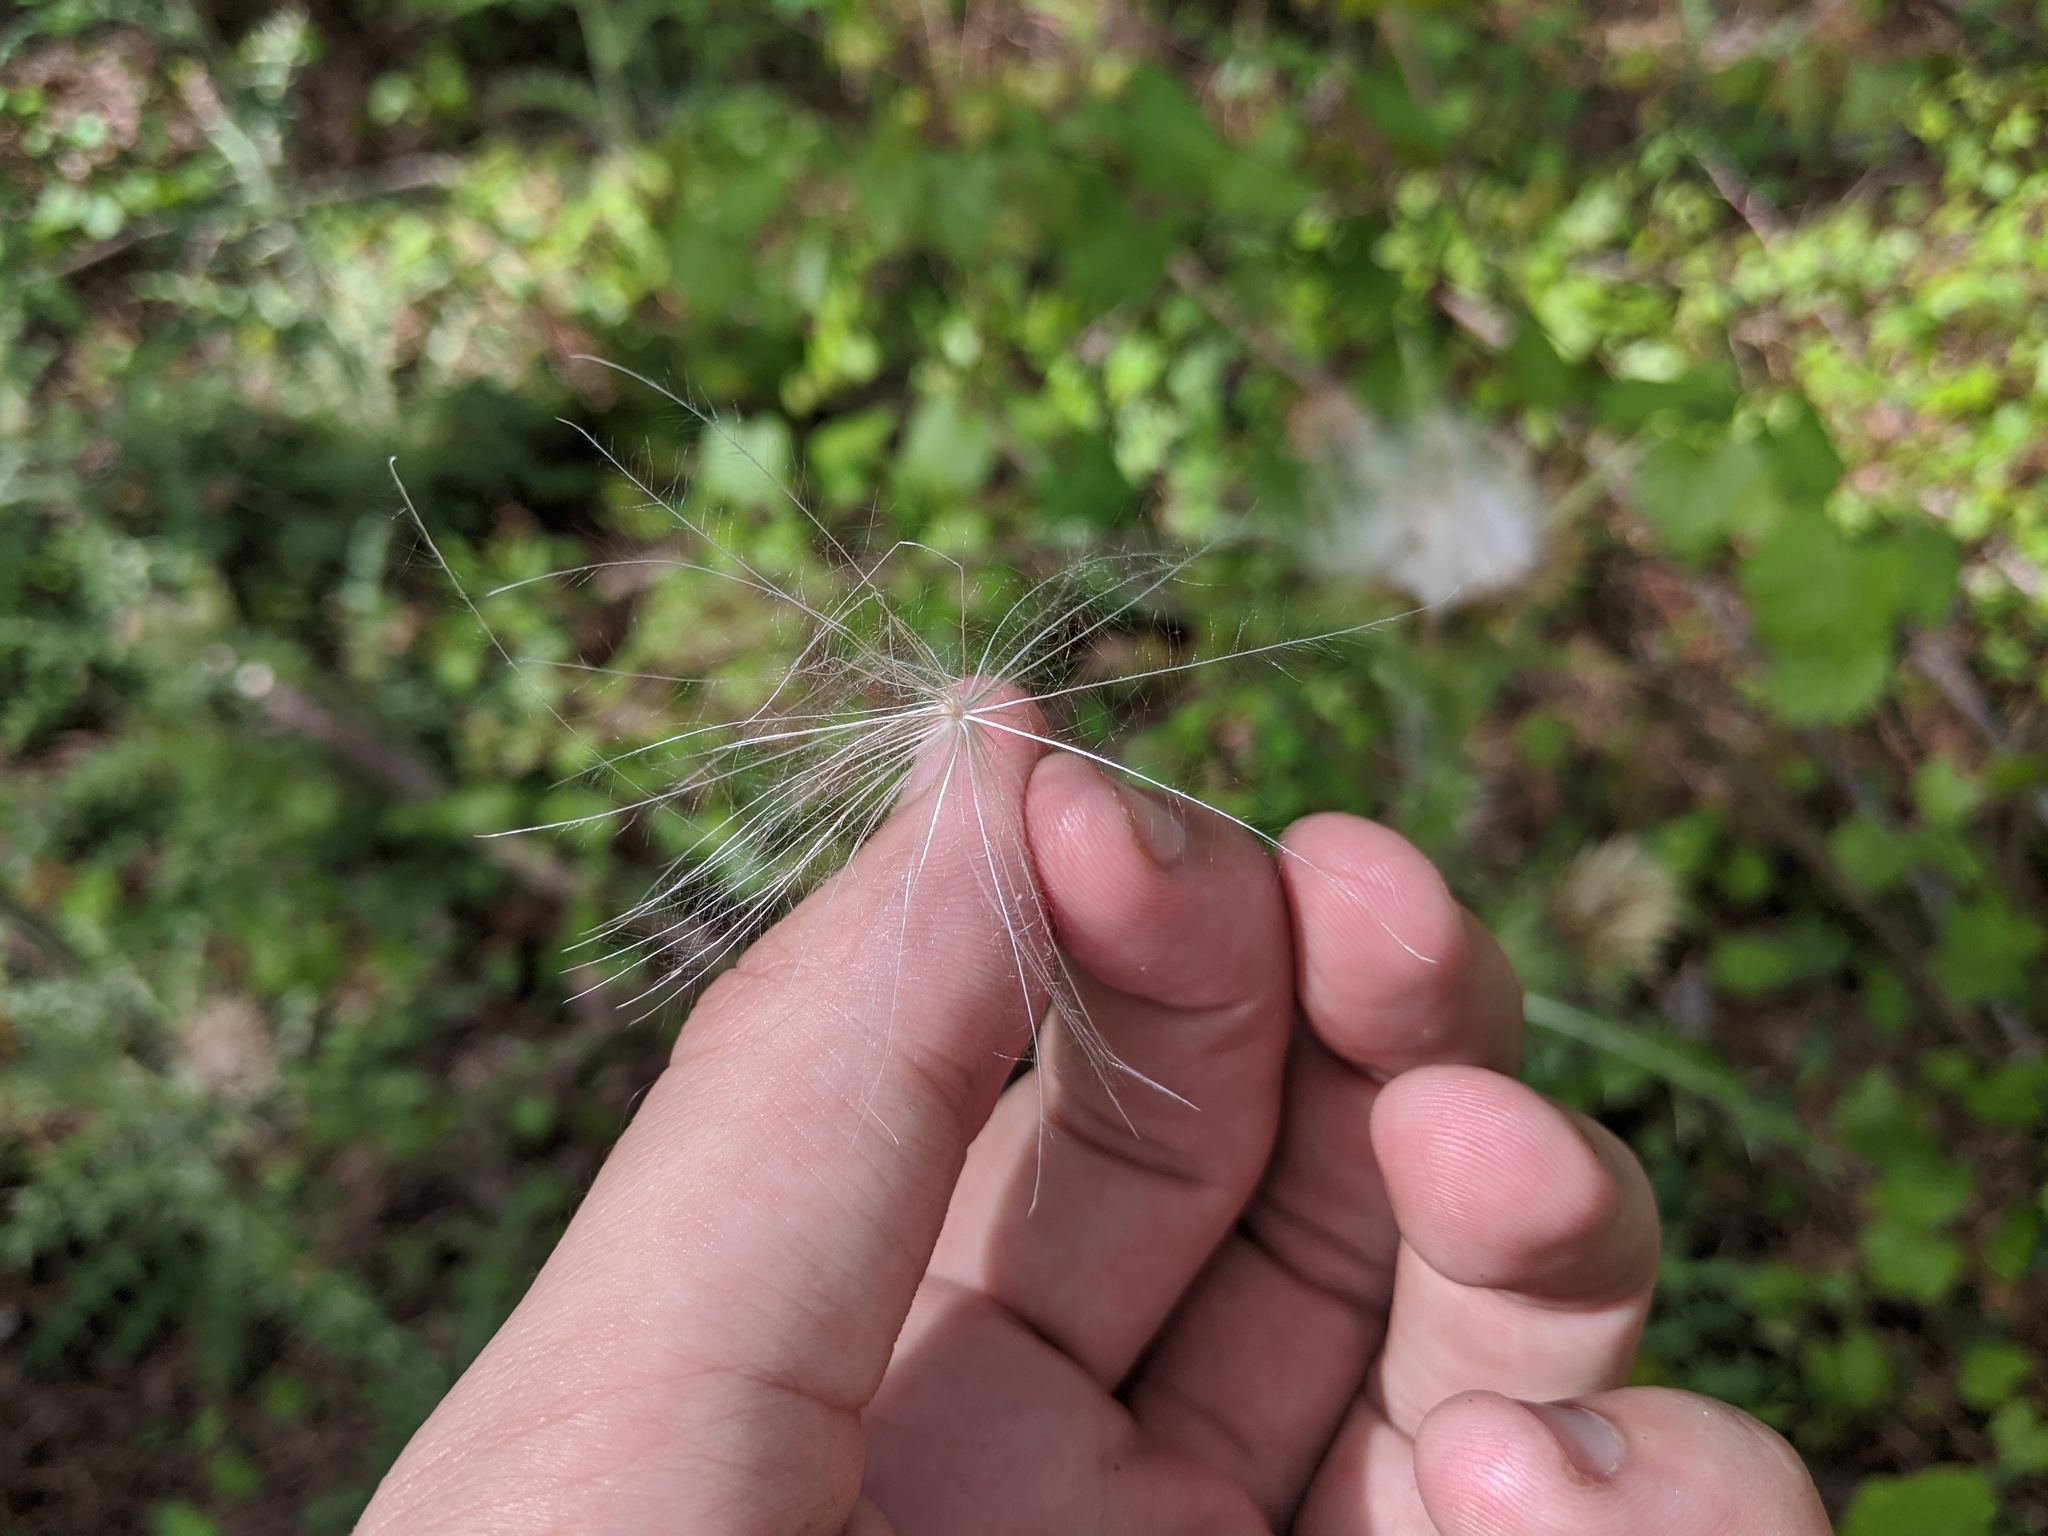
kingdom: Plantae
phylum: Tracheophyta
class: Magnoliopsida
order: Asterales
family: Asteraceae
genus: Cirsium
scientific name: Cirsium horridulum
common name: Bristly thistle
